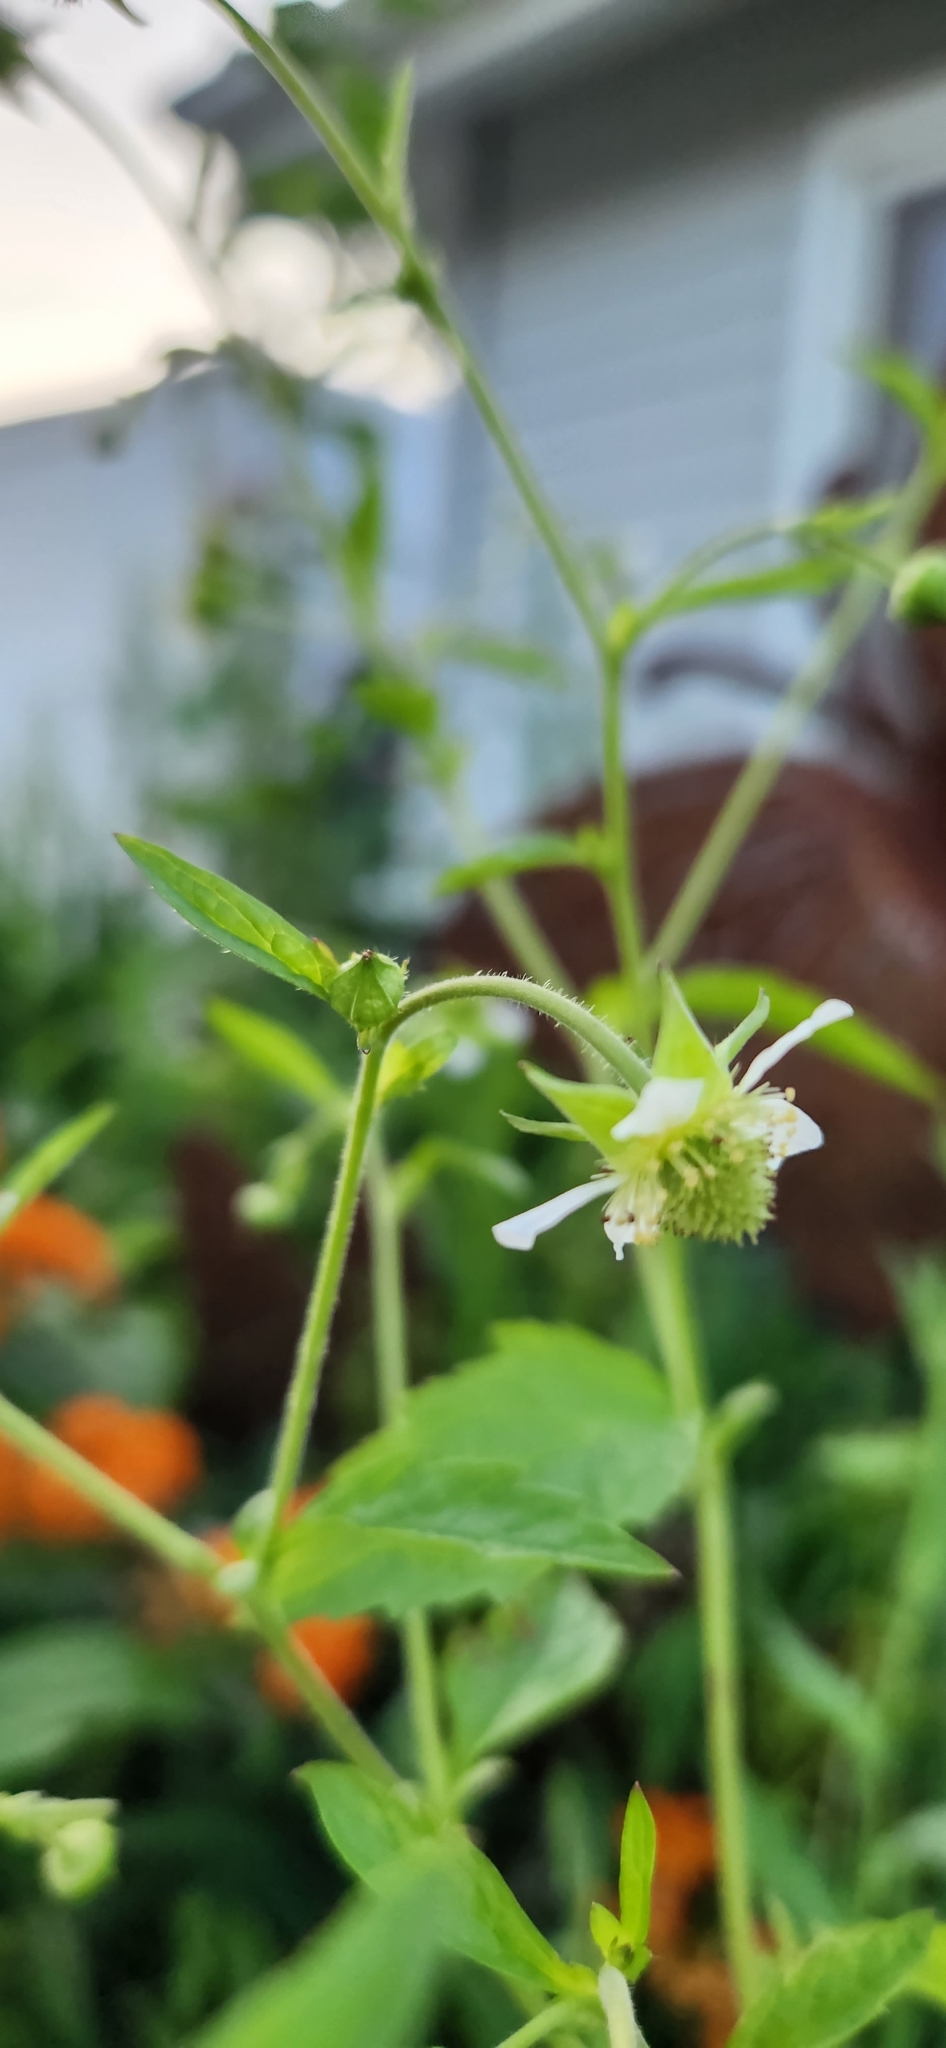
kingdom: Plantae
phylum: Tracheophyta
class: Magnoliopsida
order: Rosales
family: Rosaceae
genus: Geum
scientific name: Geum canadense
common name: White avens
